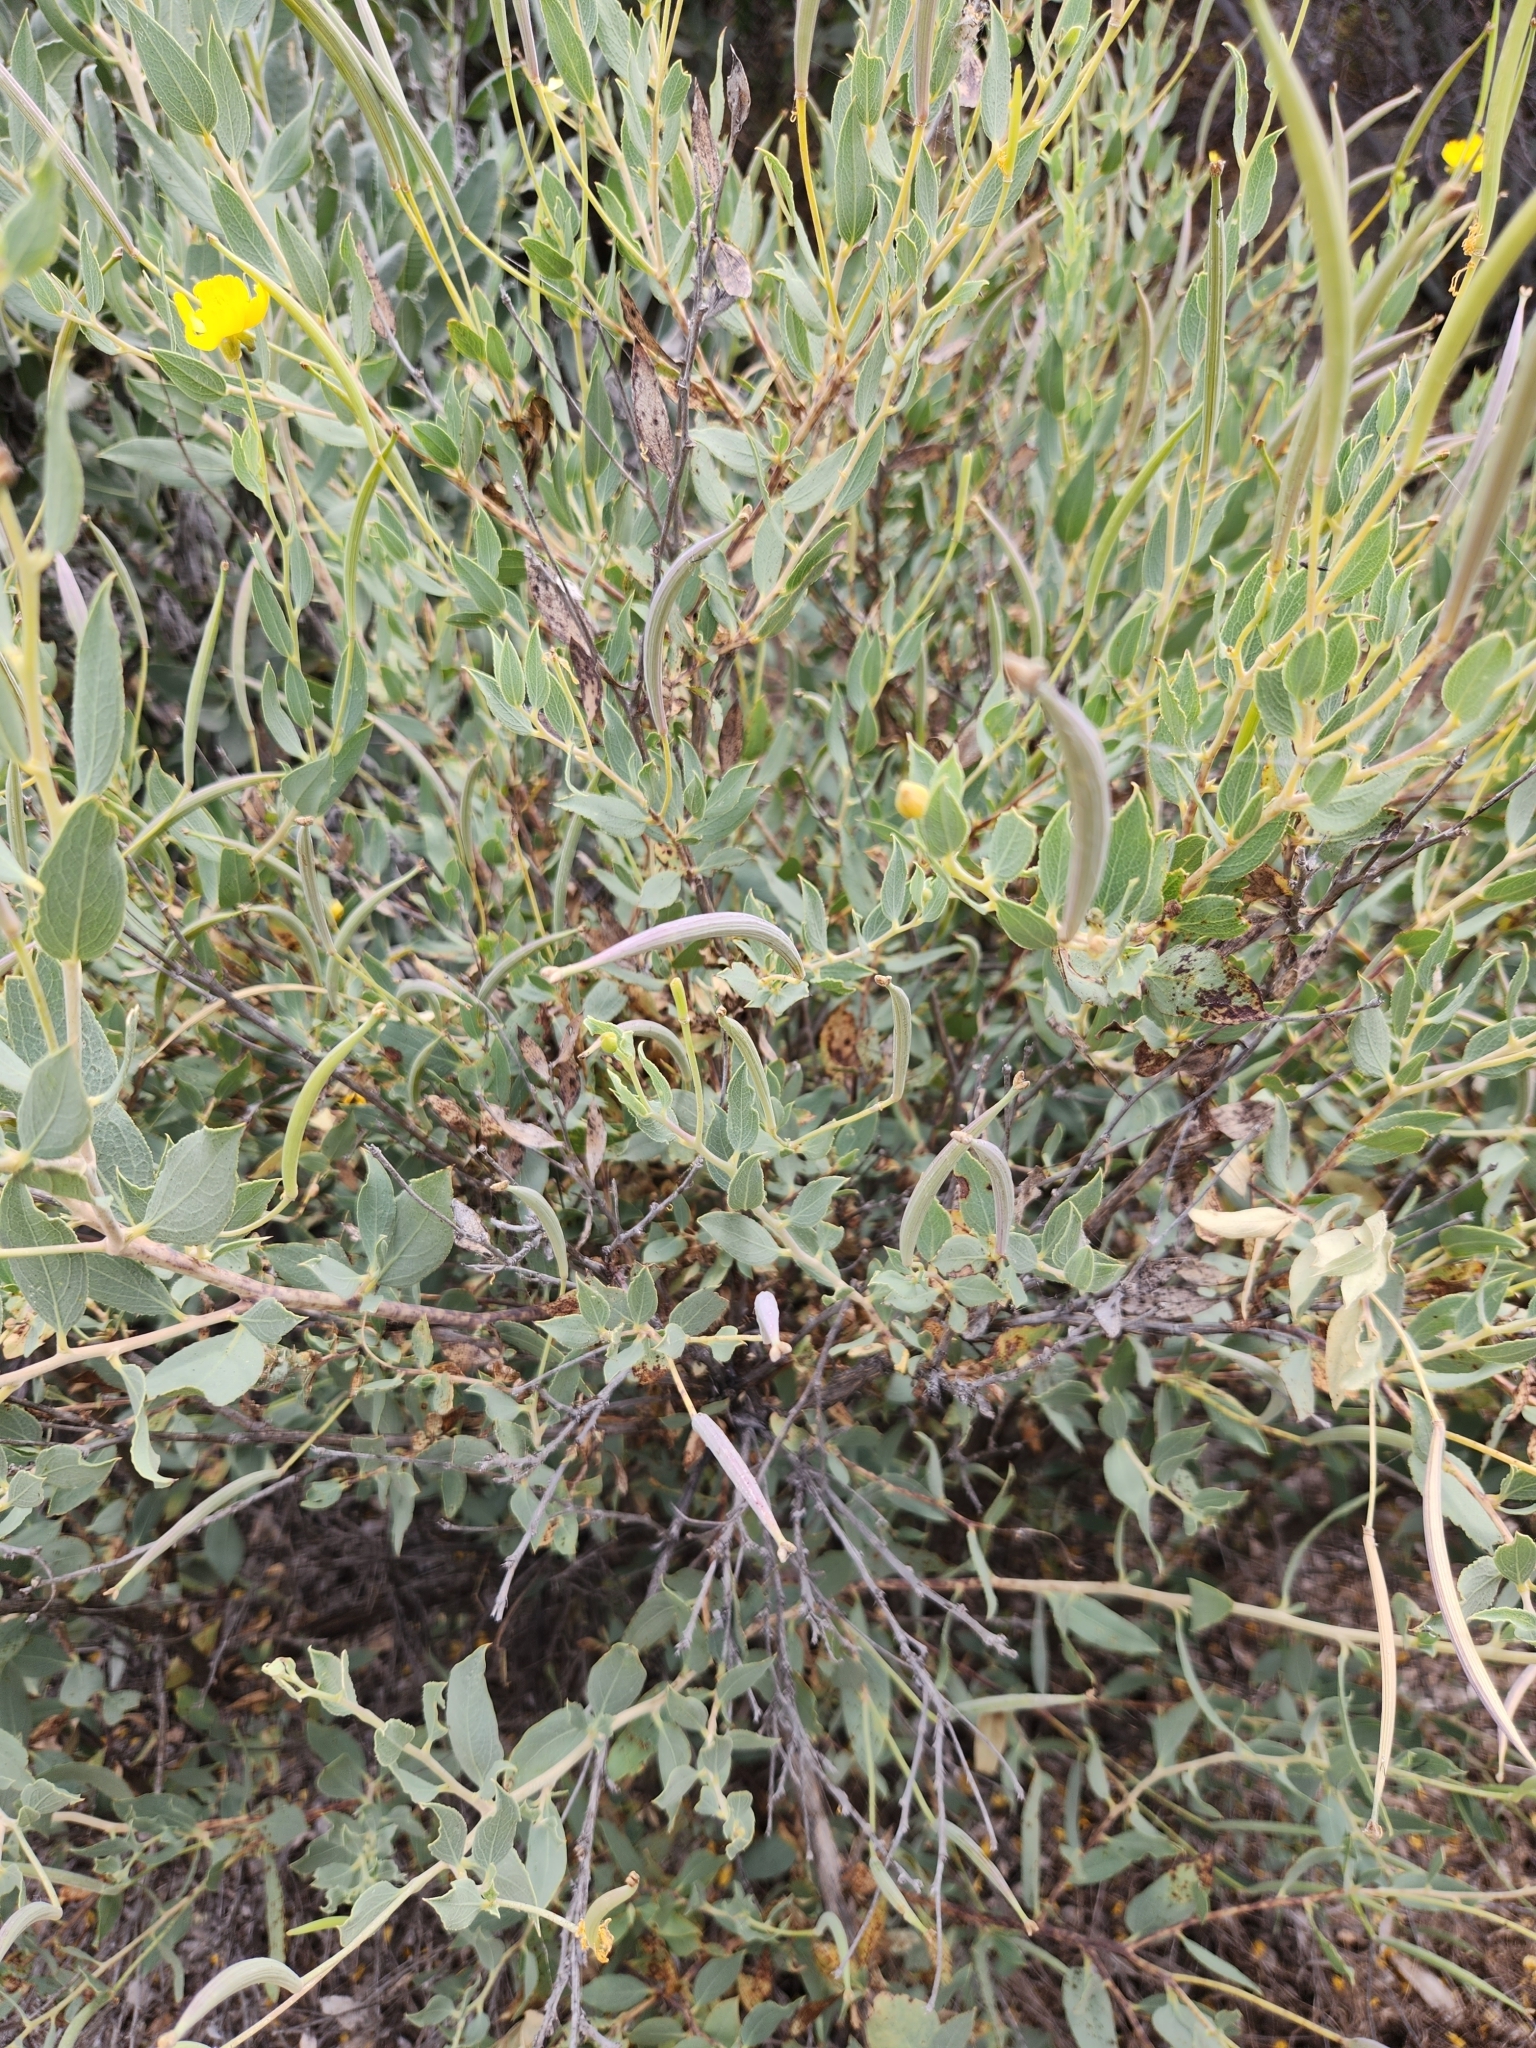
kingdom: Plantae
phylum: Tracheophyta
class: Magnoliopsida
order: Ranunculales
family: Papaveraceae
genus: Dendromecon
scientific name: Dendromecon rigida
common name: Tree poppy
